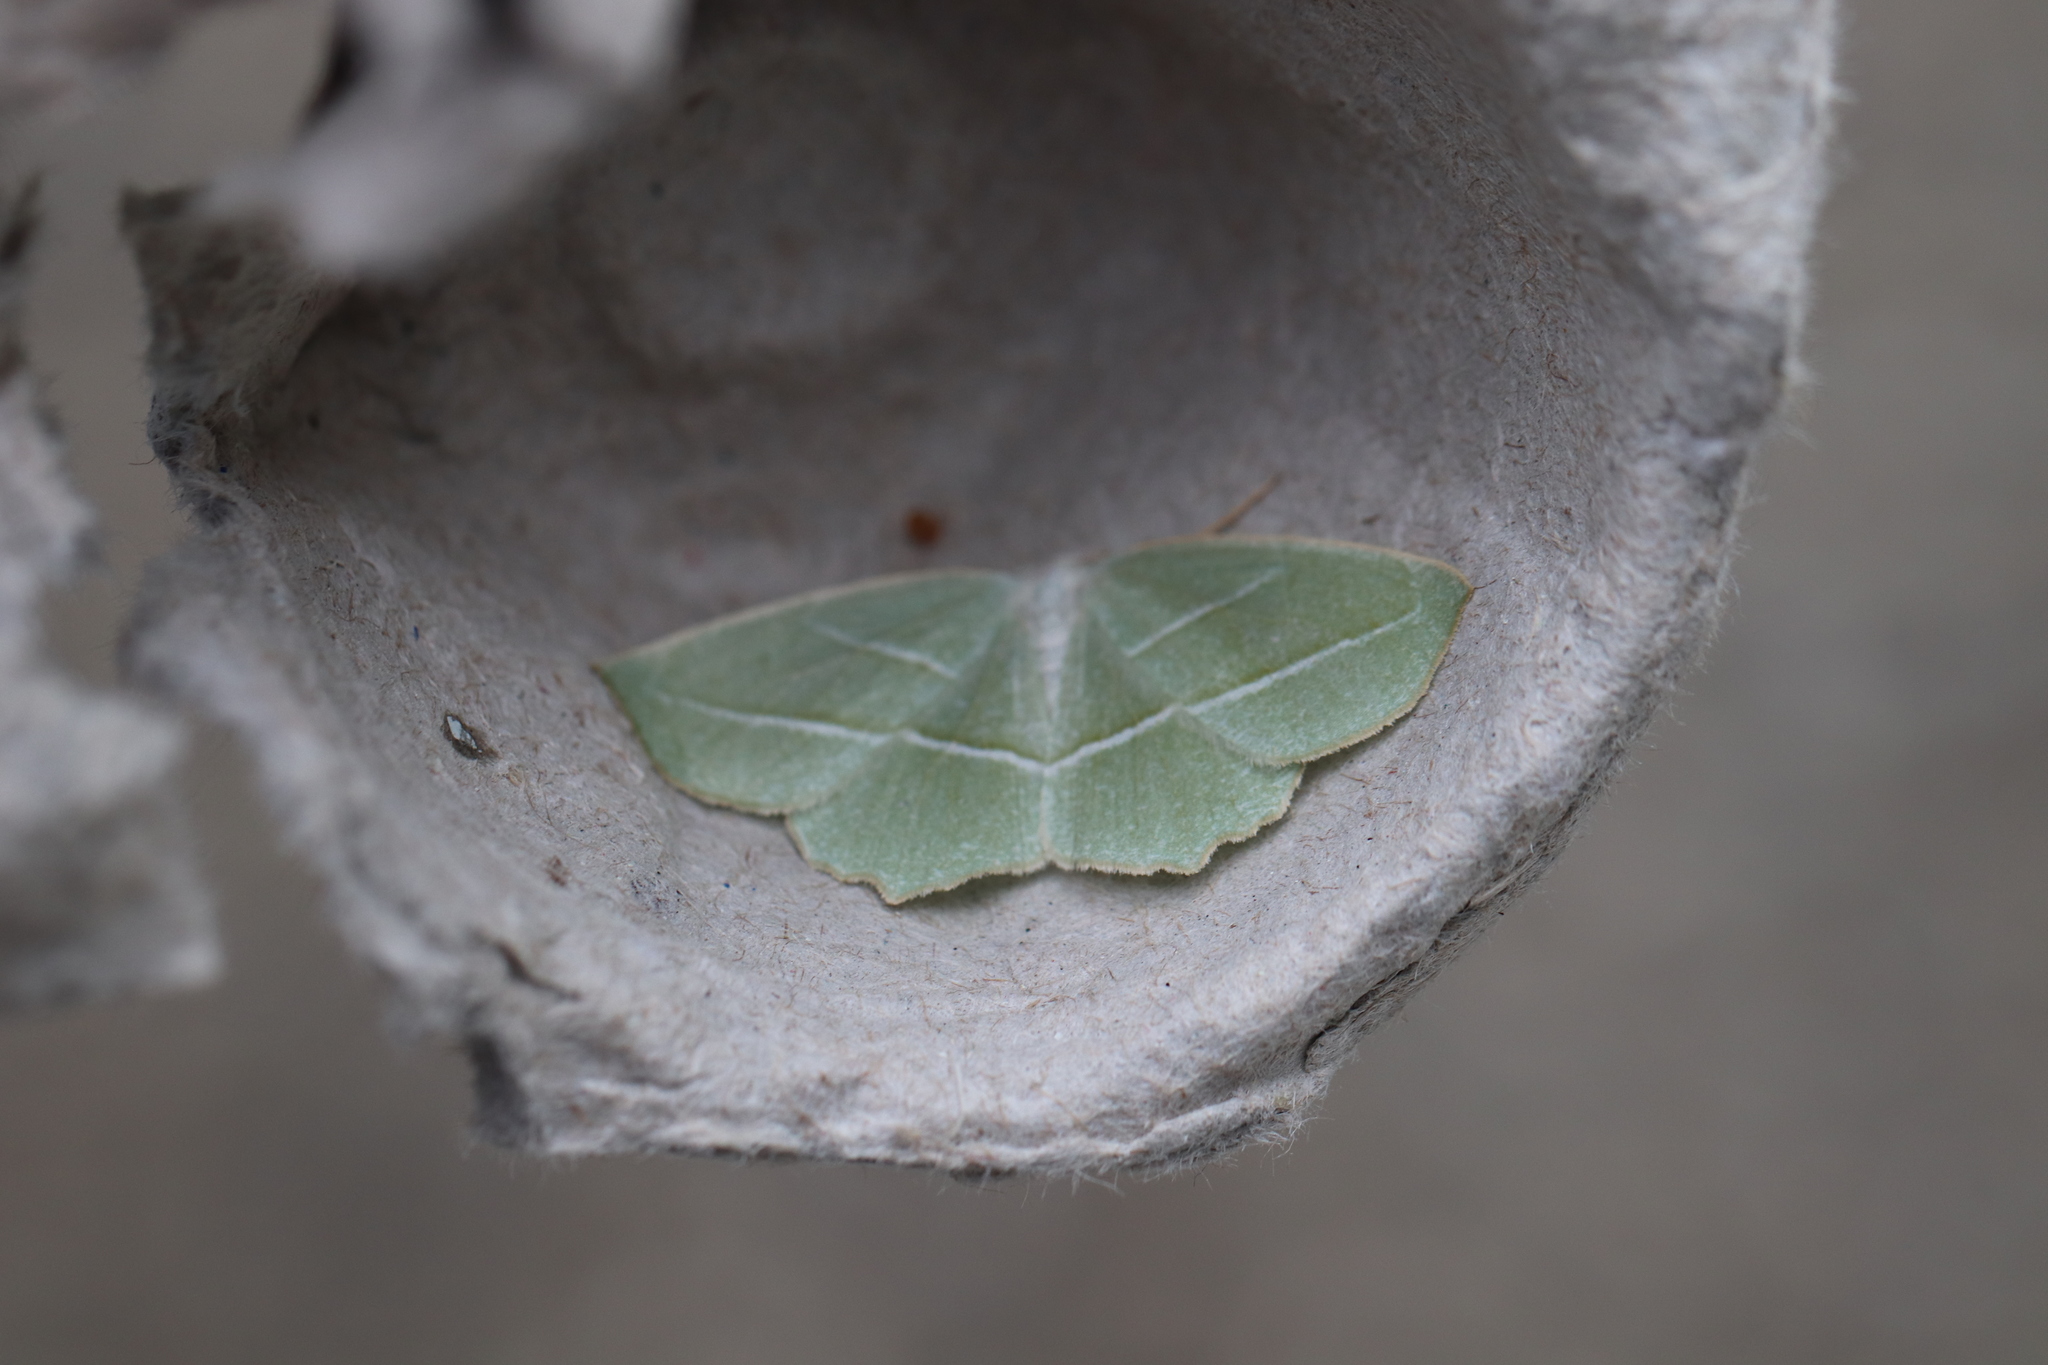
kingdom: Animalia
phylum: Arthropoda
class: Insecta
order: Lepidoptera
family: Geometridae
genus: Campaea
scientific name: Campaea perlata
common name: Fringed looper
